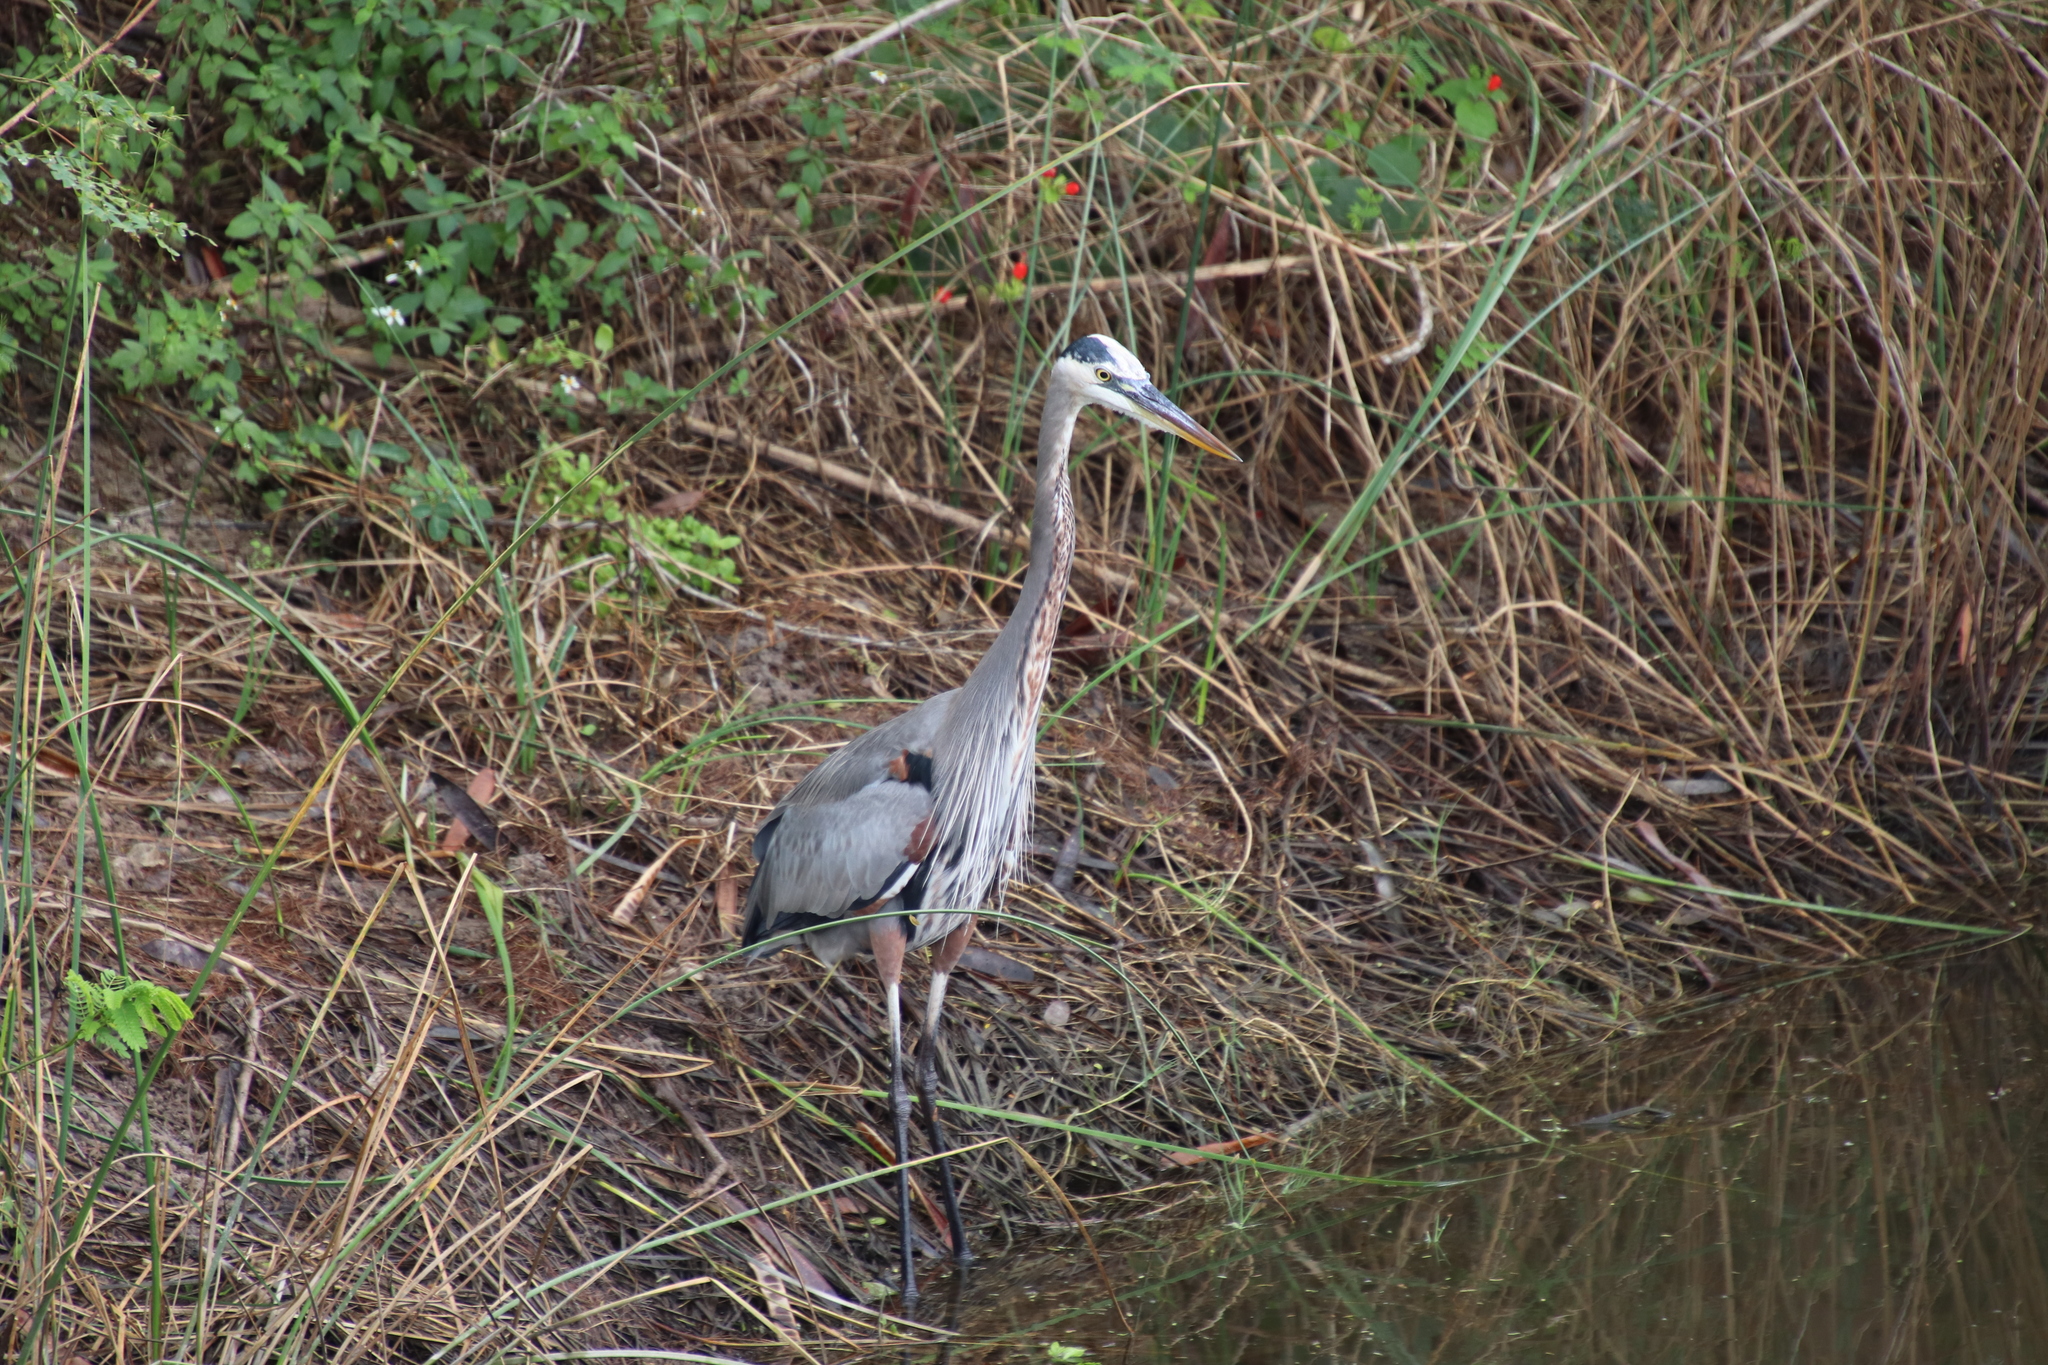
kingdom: Animalia
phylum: Chordata
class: Aves
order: Pelecaniformes
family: Ardeidae
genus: Ardea
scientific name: Ardea herodias
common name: Great blue heron
